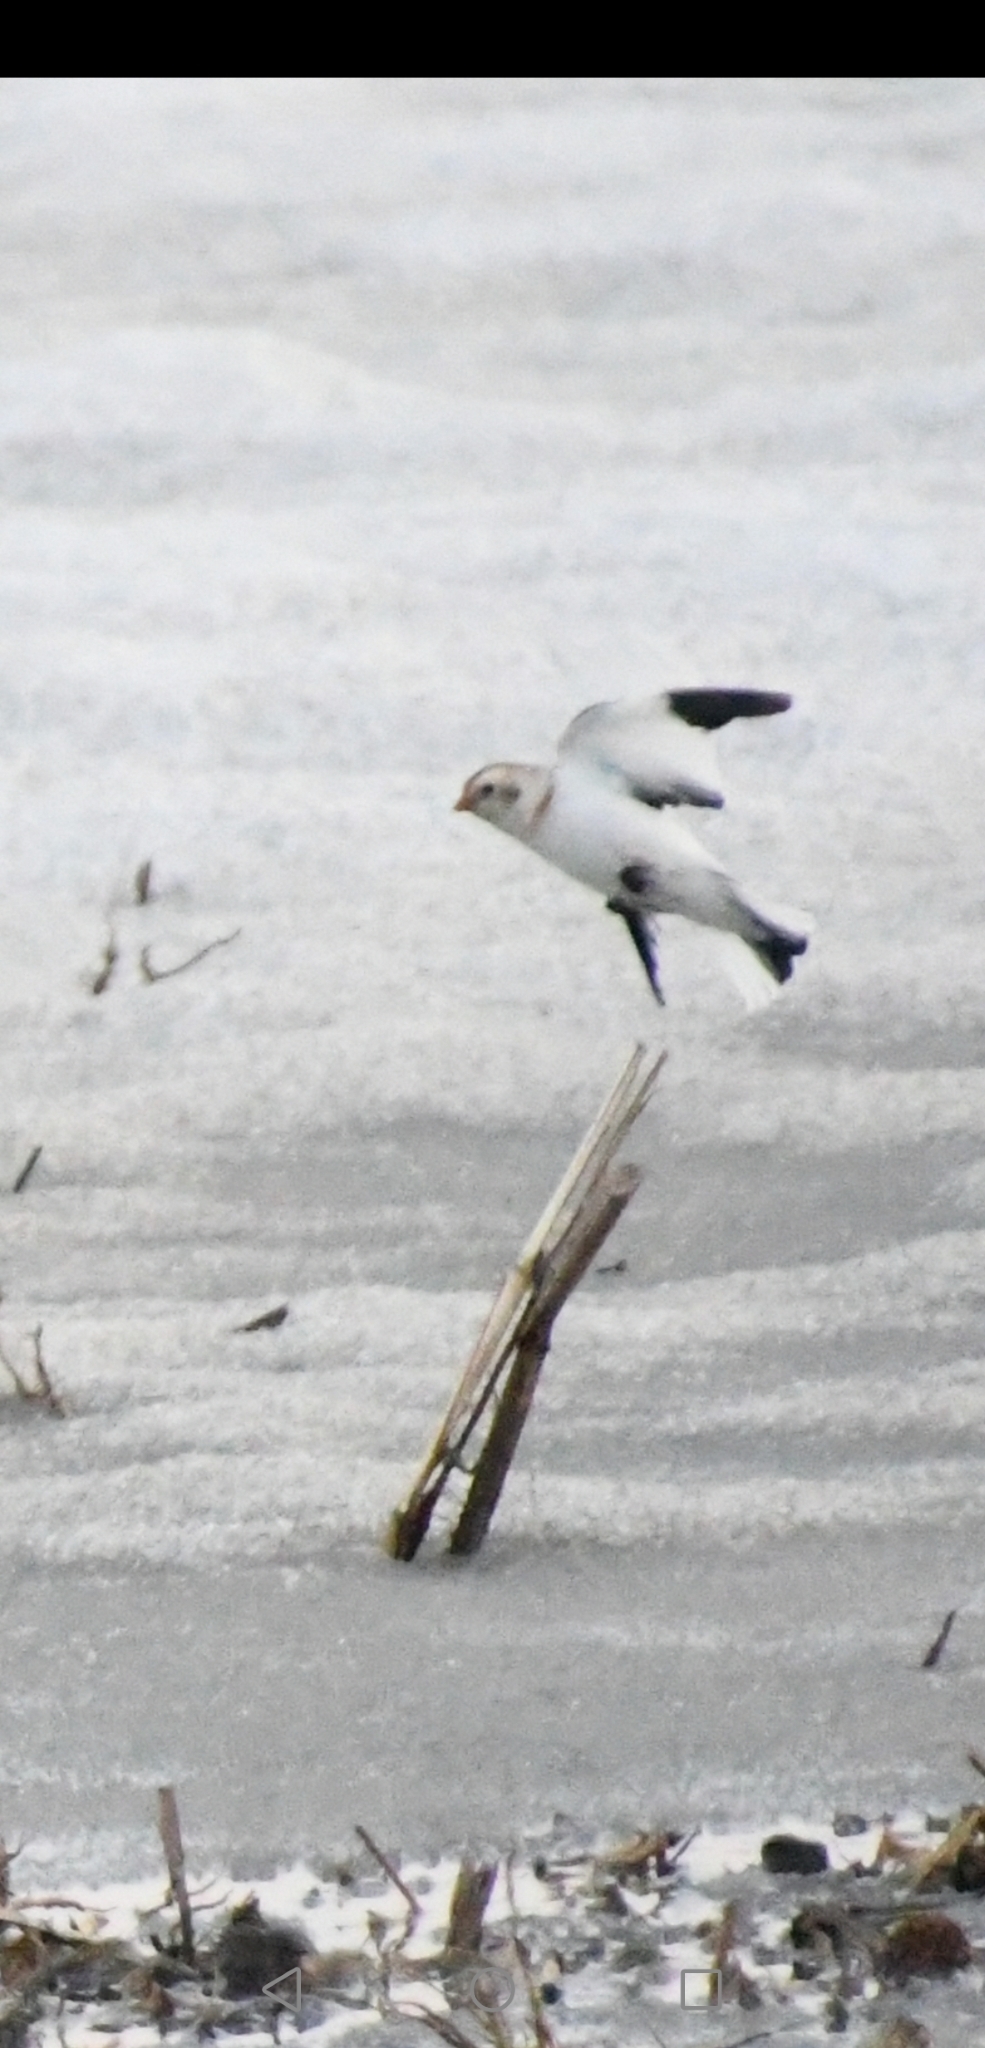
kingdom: Animalia
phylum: Chordata
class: Aves
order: Passeriformes
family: Calcariidae
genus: Plectrophenax
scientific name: Plectrophenax nivalis
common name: Snow bunting
